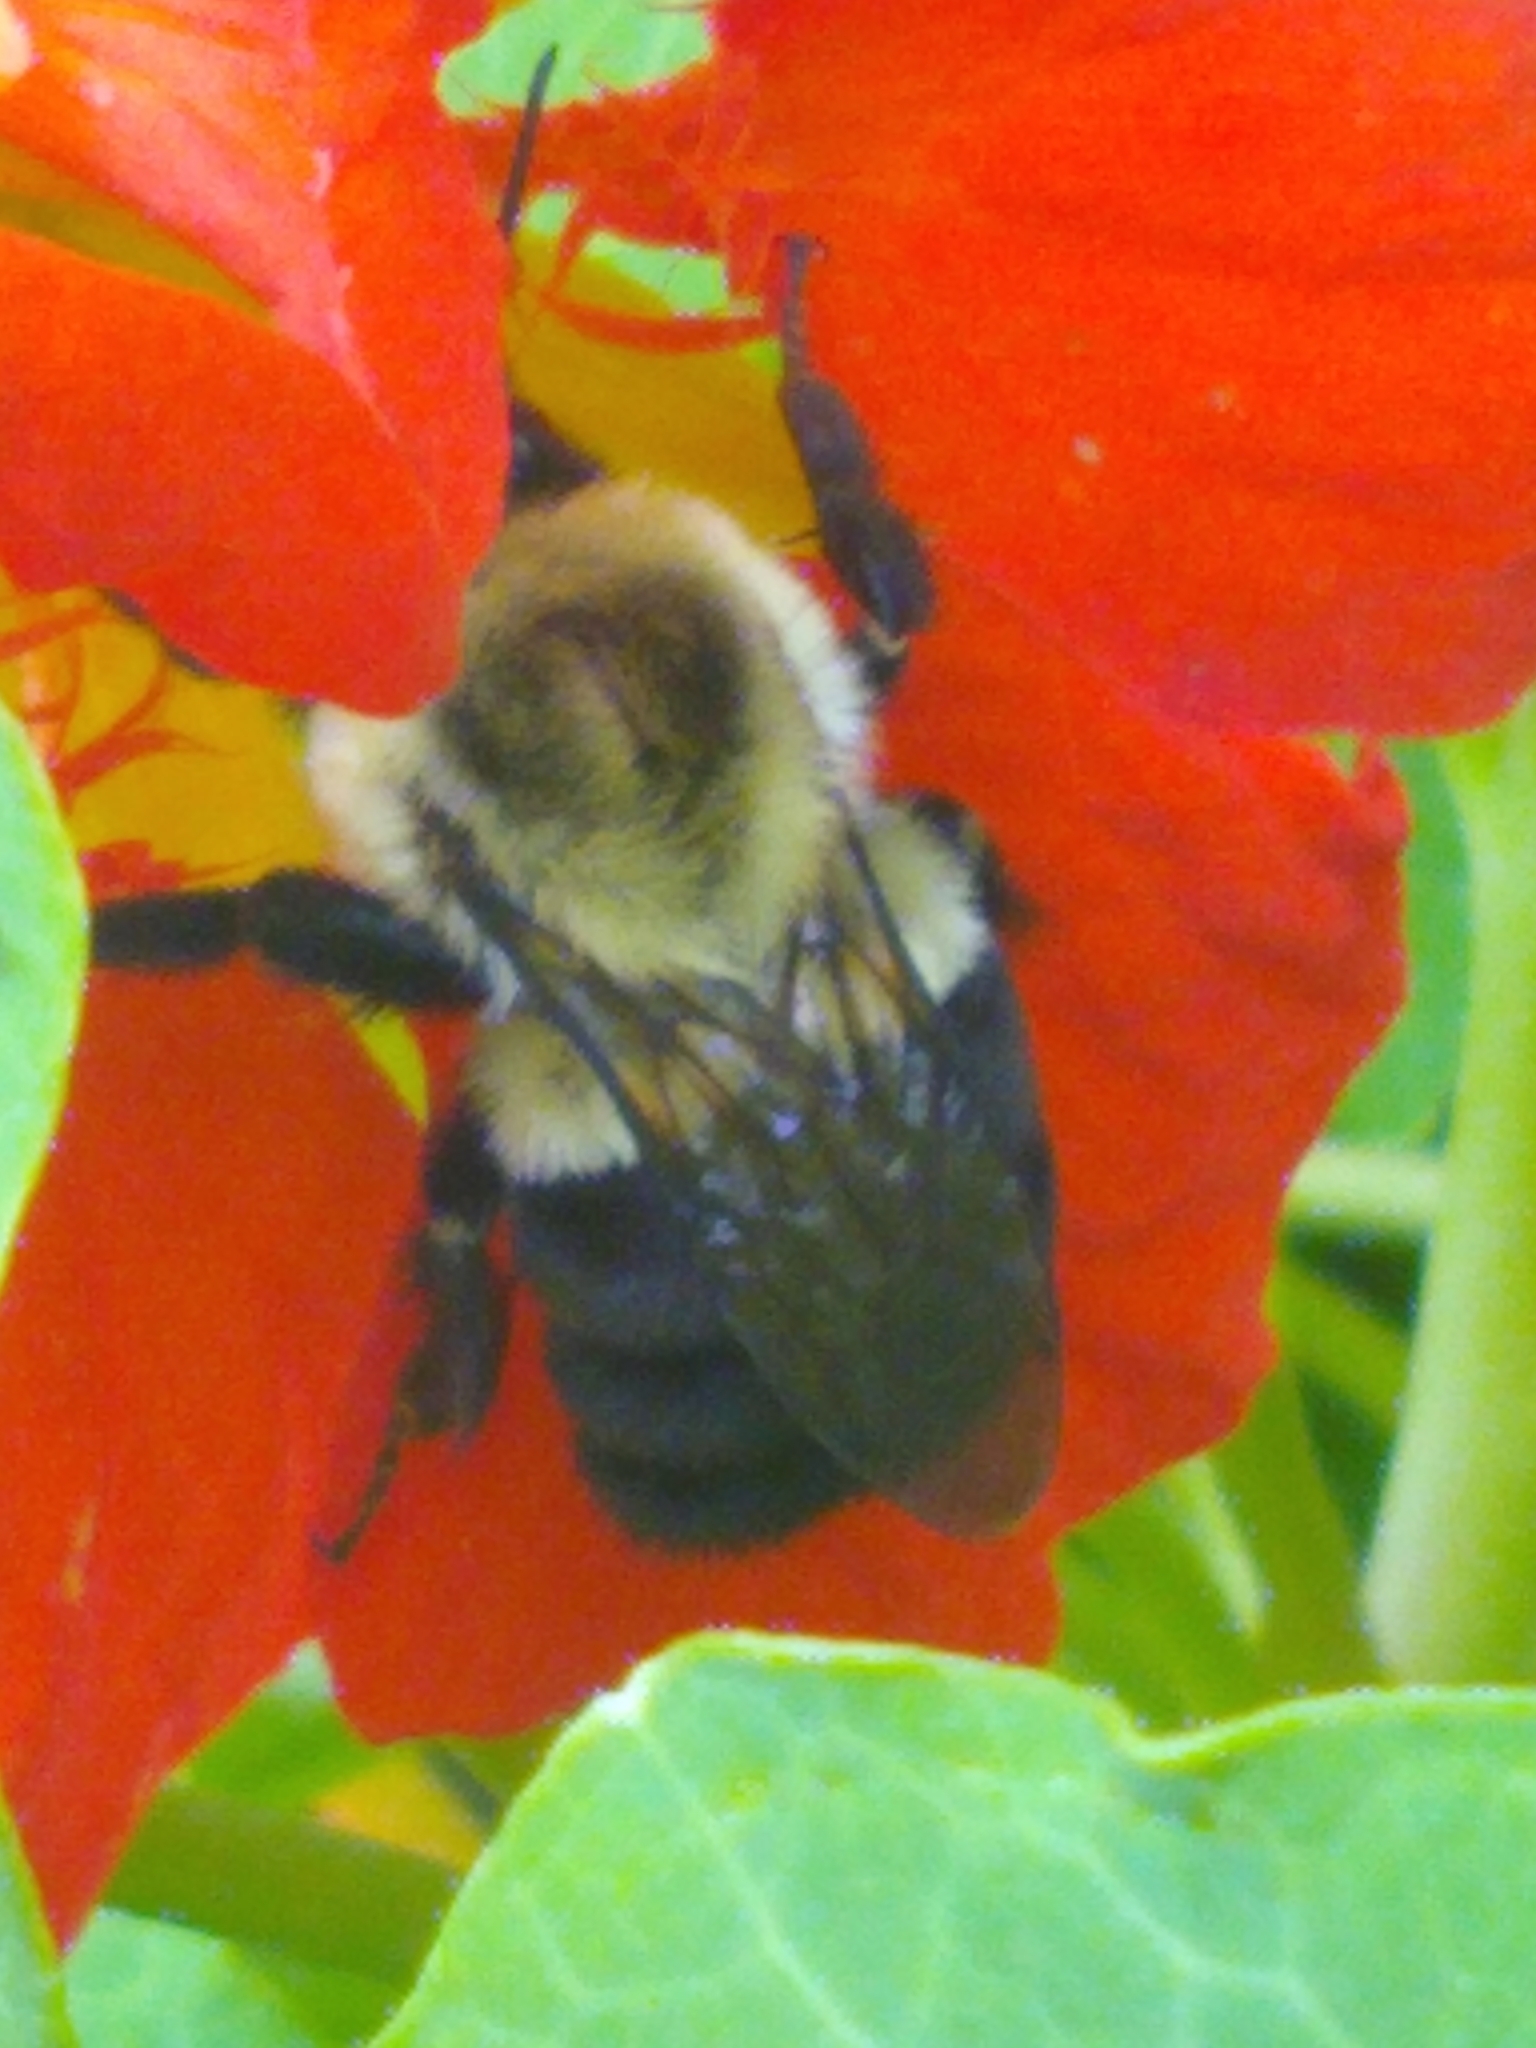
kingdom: Animalia
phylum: Arthropoda
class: Insecta
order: Hymenoptera
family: Apidae
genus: Bombus
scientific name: Bombus impatiens
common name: Common eastern bumble bee
